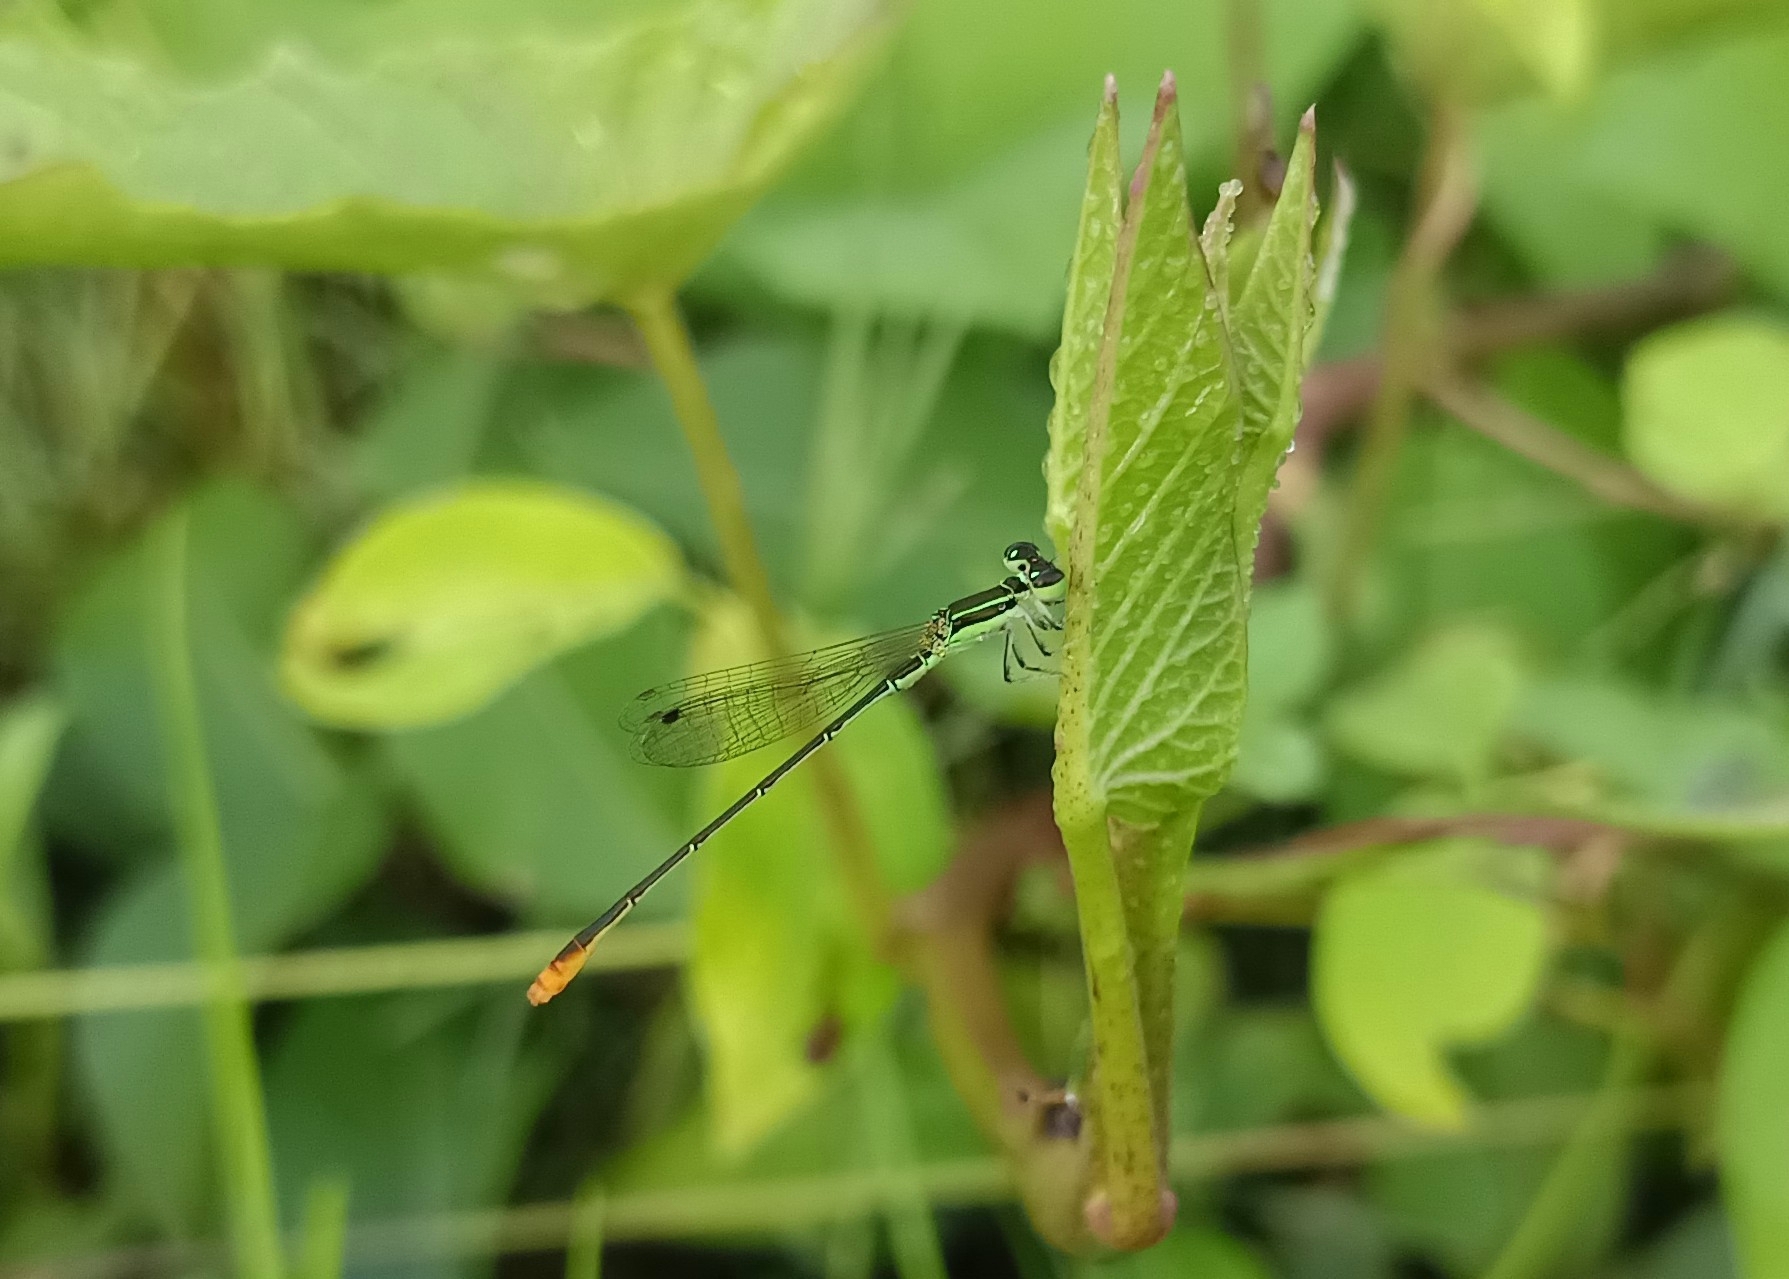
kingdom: Animalia
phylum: Arthropoda
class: Insecta
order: Odonata
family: Coenagrionidae
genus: Agriocnemis
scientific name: Agriocnemis pygmaea
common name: Pygmy wisp
